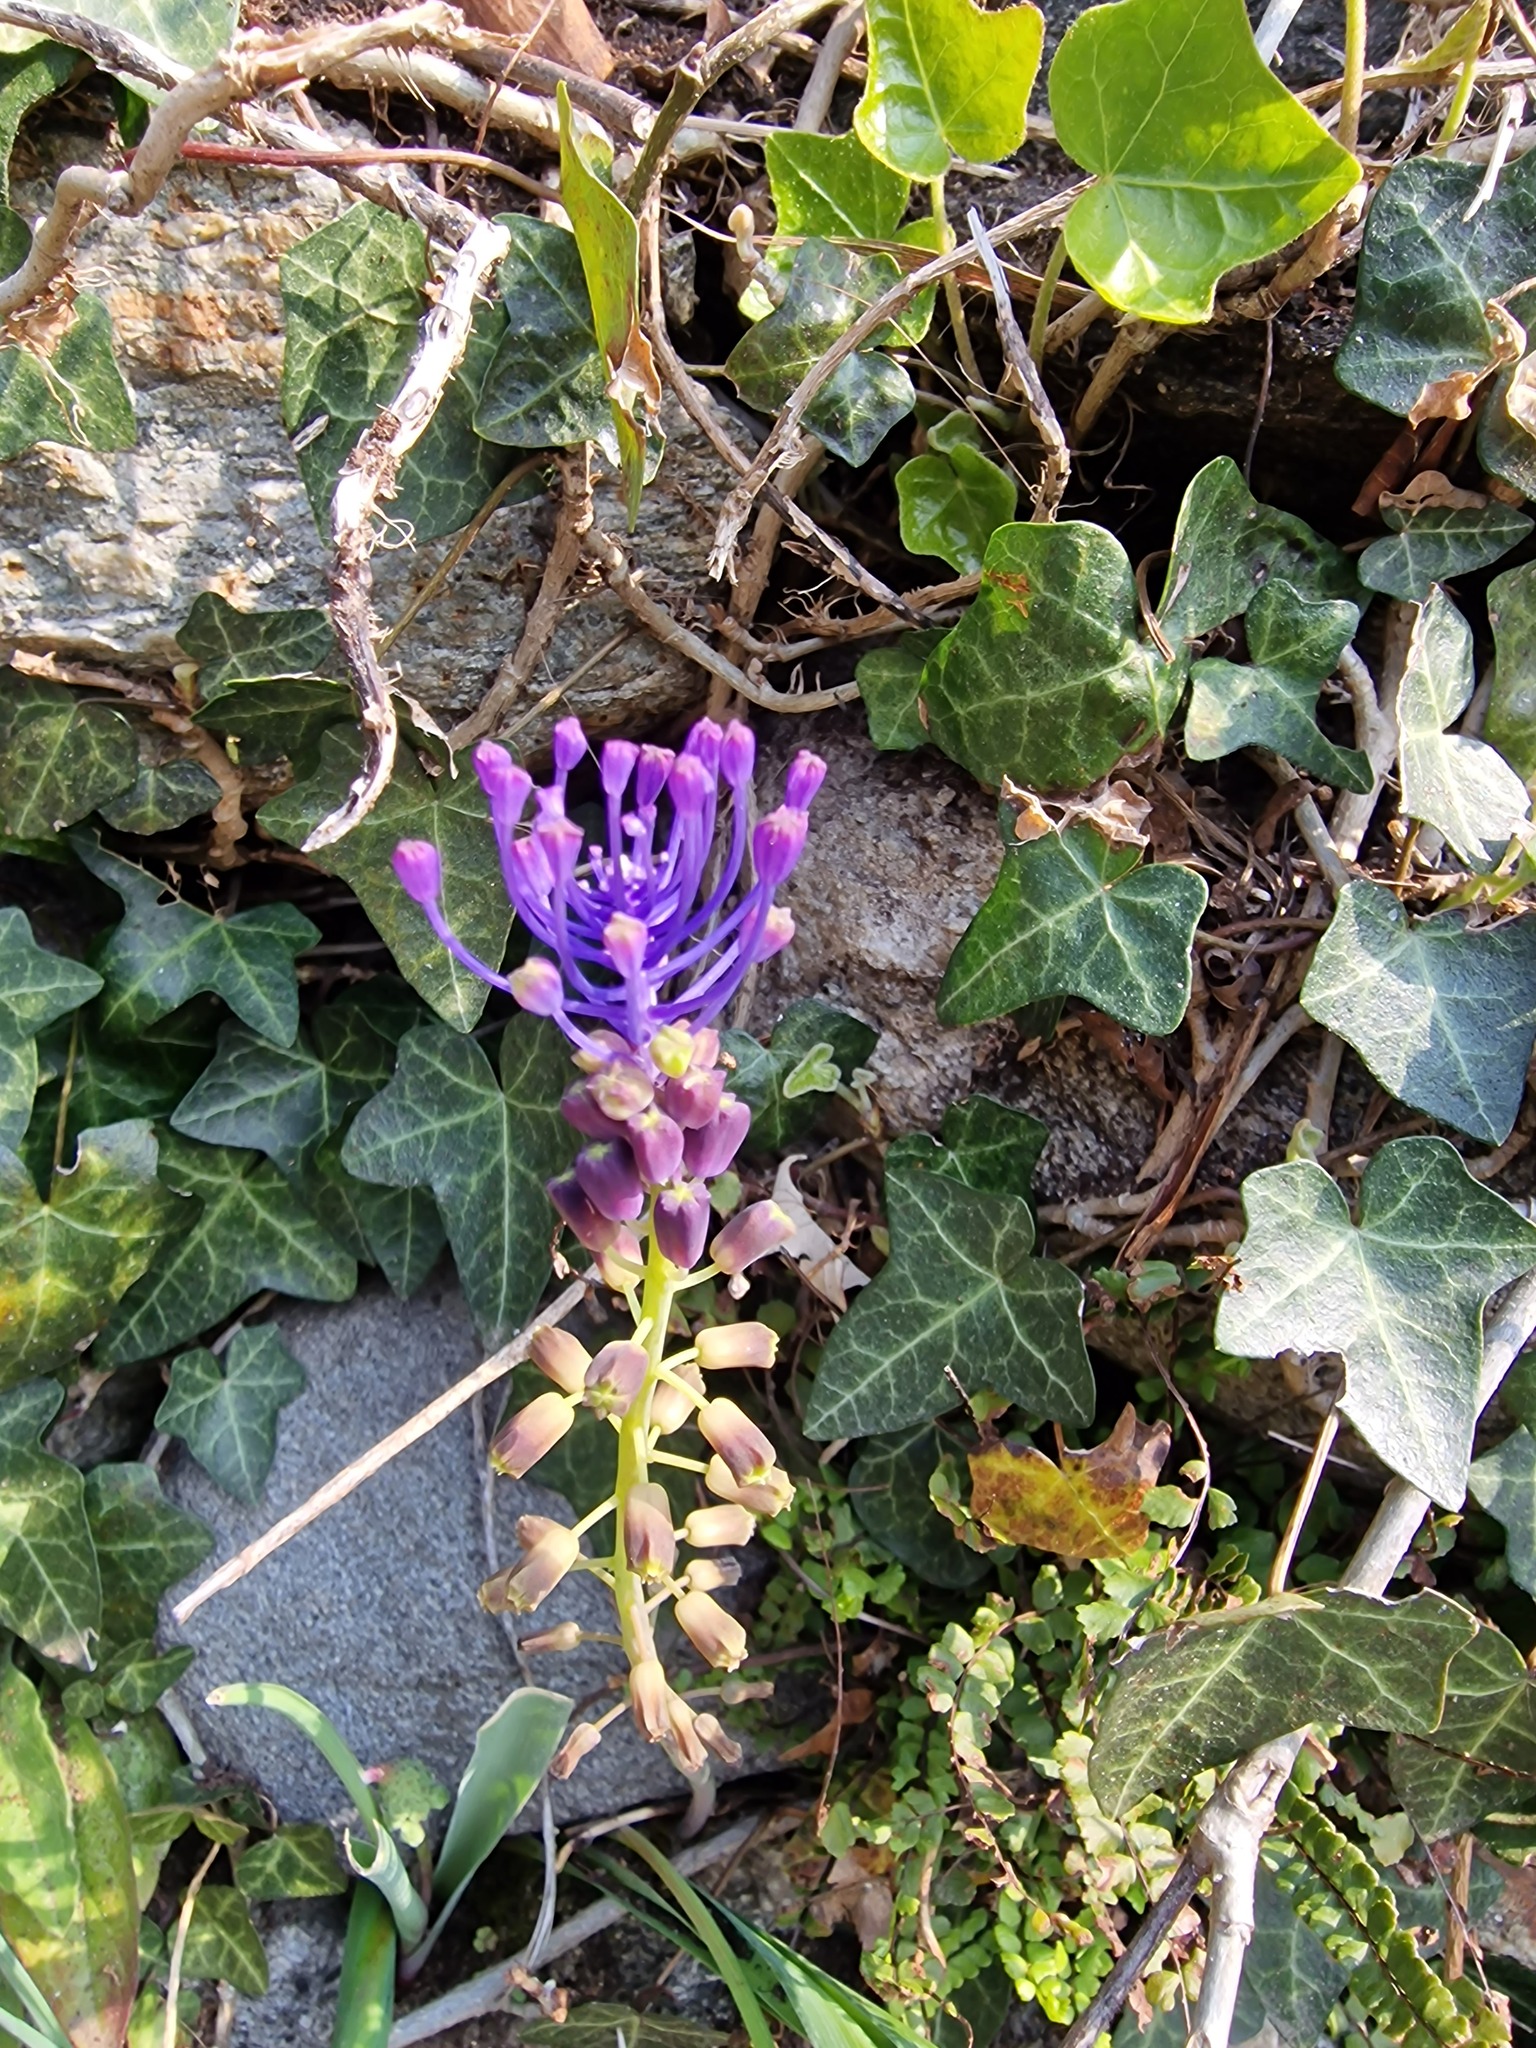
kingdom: Plantae
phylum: Tracheophyta
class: Liliopsida
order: Asparagales
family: Asparagaceae
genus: Muscari
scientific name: Muscari comosum
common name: Tassel hyacinth
